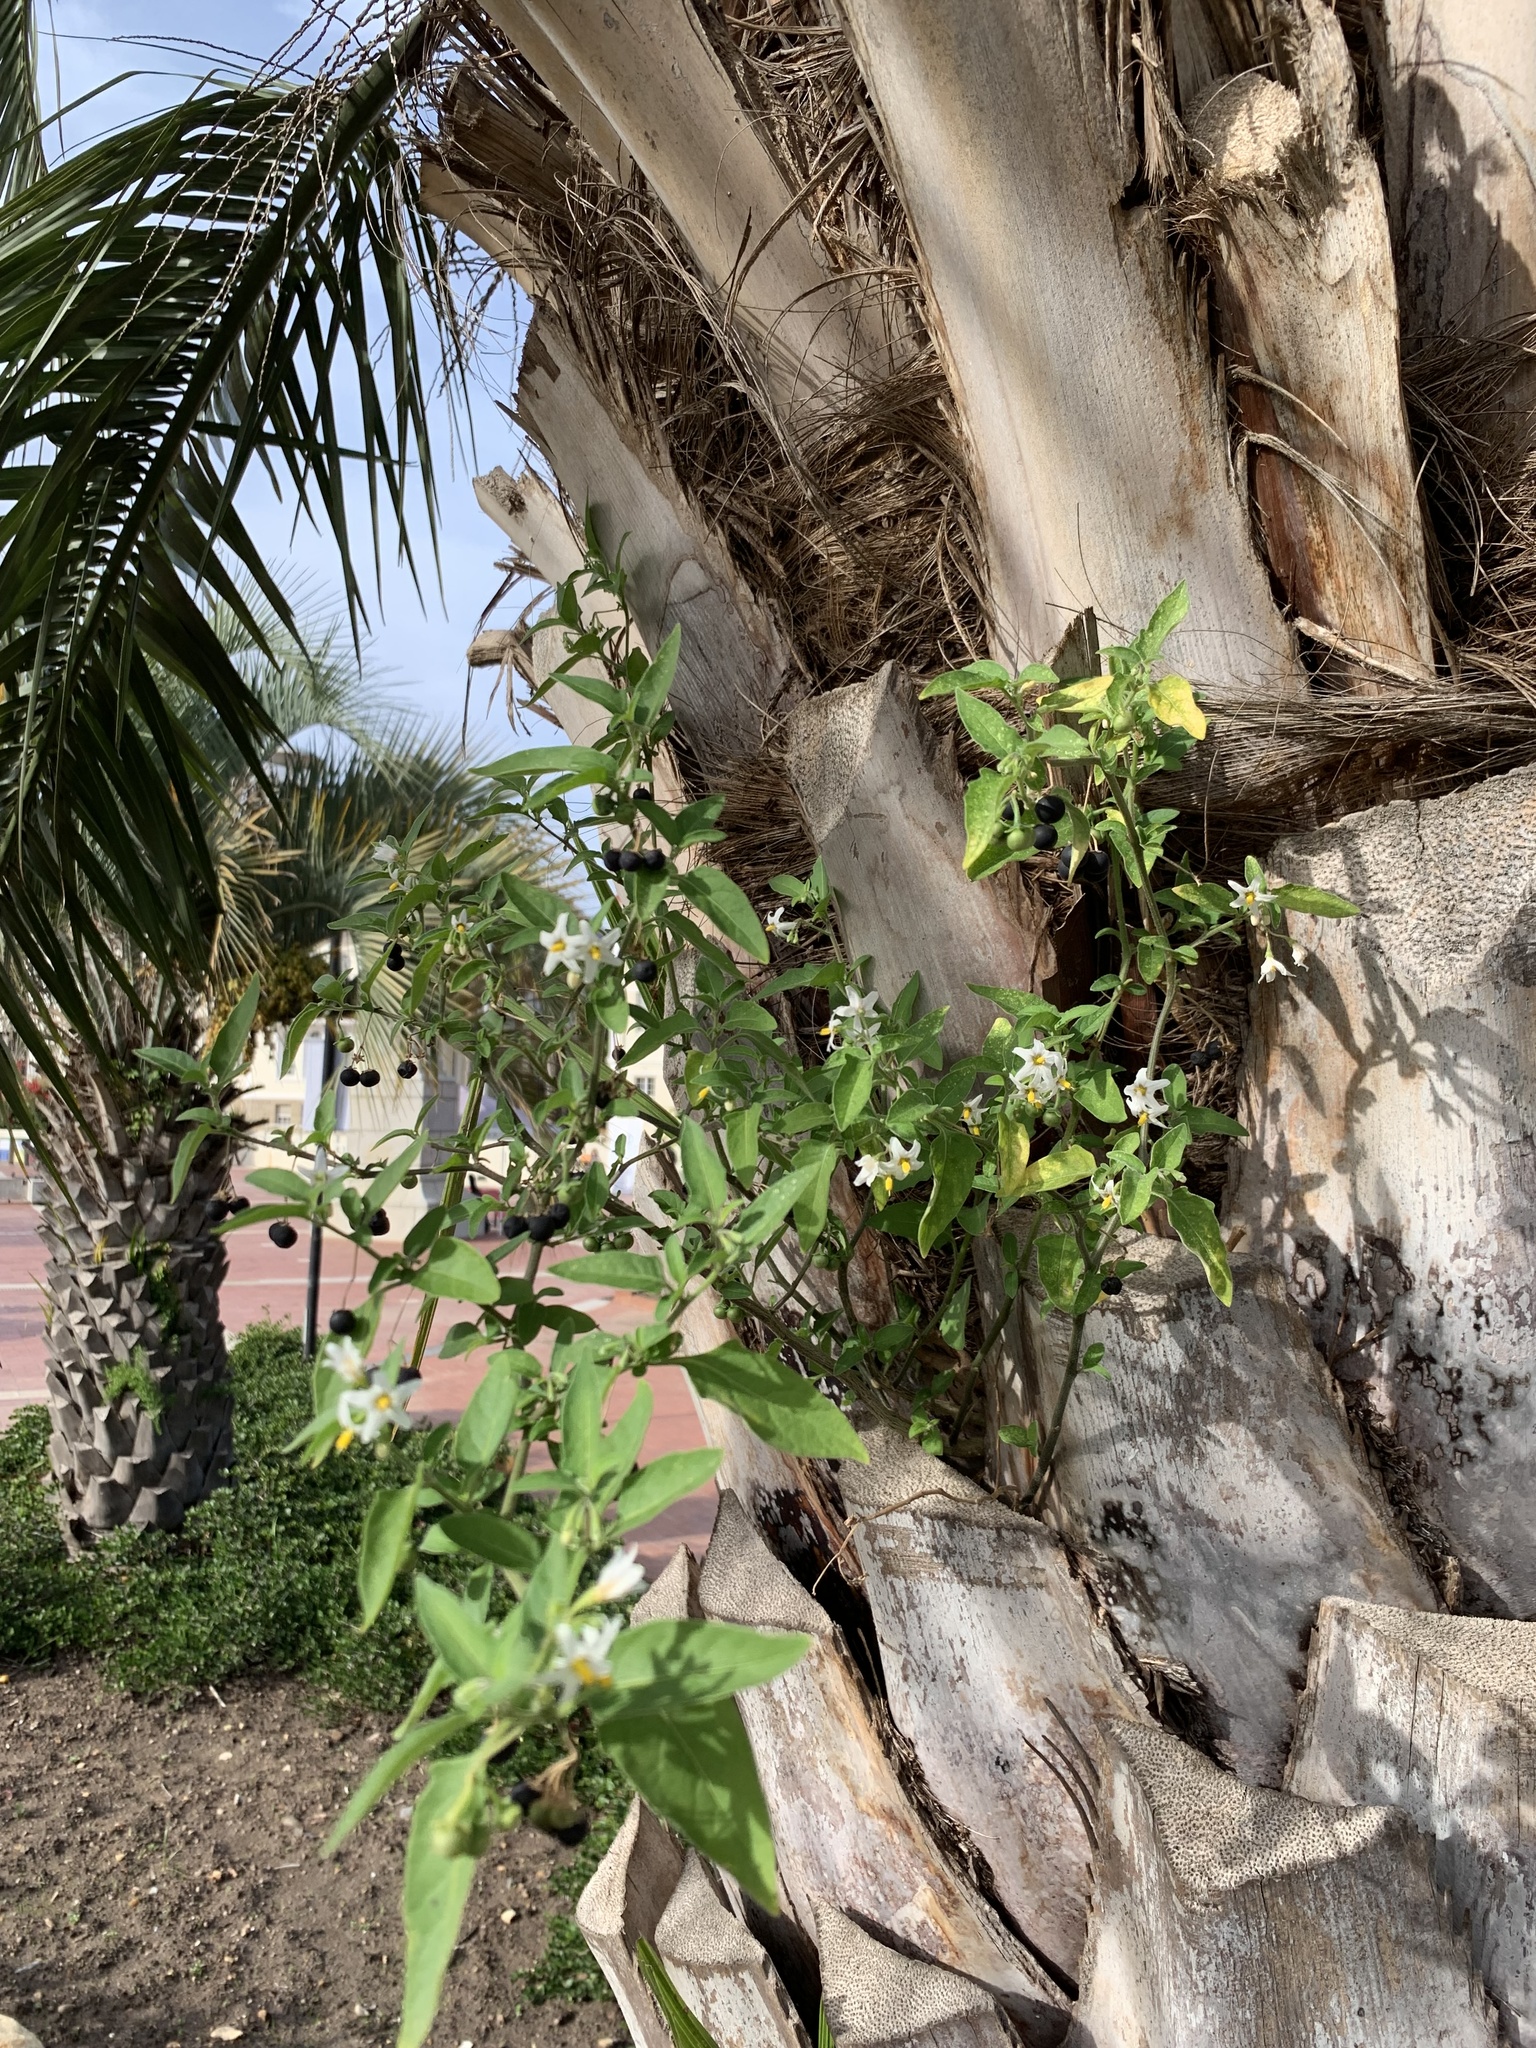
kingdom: Plantae
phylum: Tracheophyta
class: Magnoliopsida
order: Solanales
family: Solanaceae
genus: Solanum
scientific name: Solanum chenopodioides
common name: Tall nightshade
